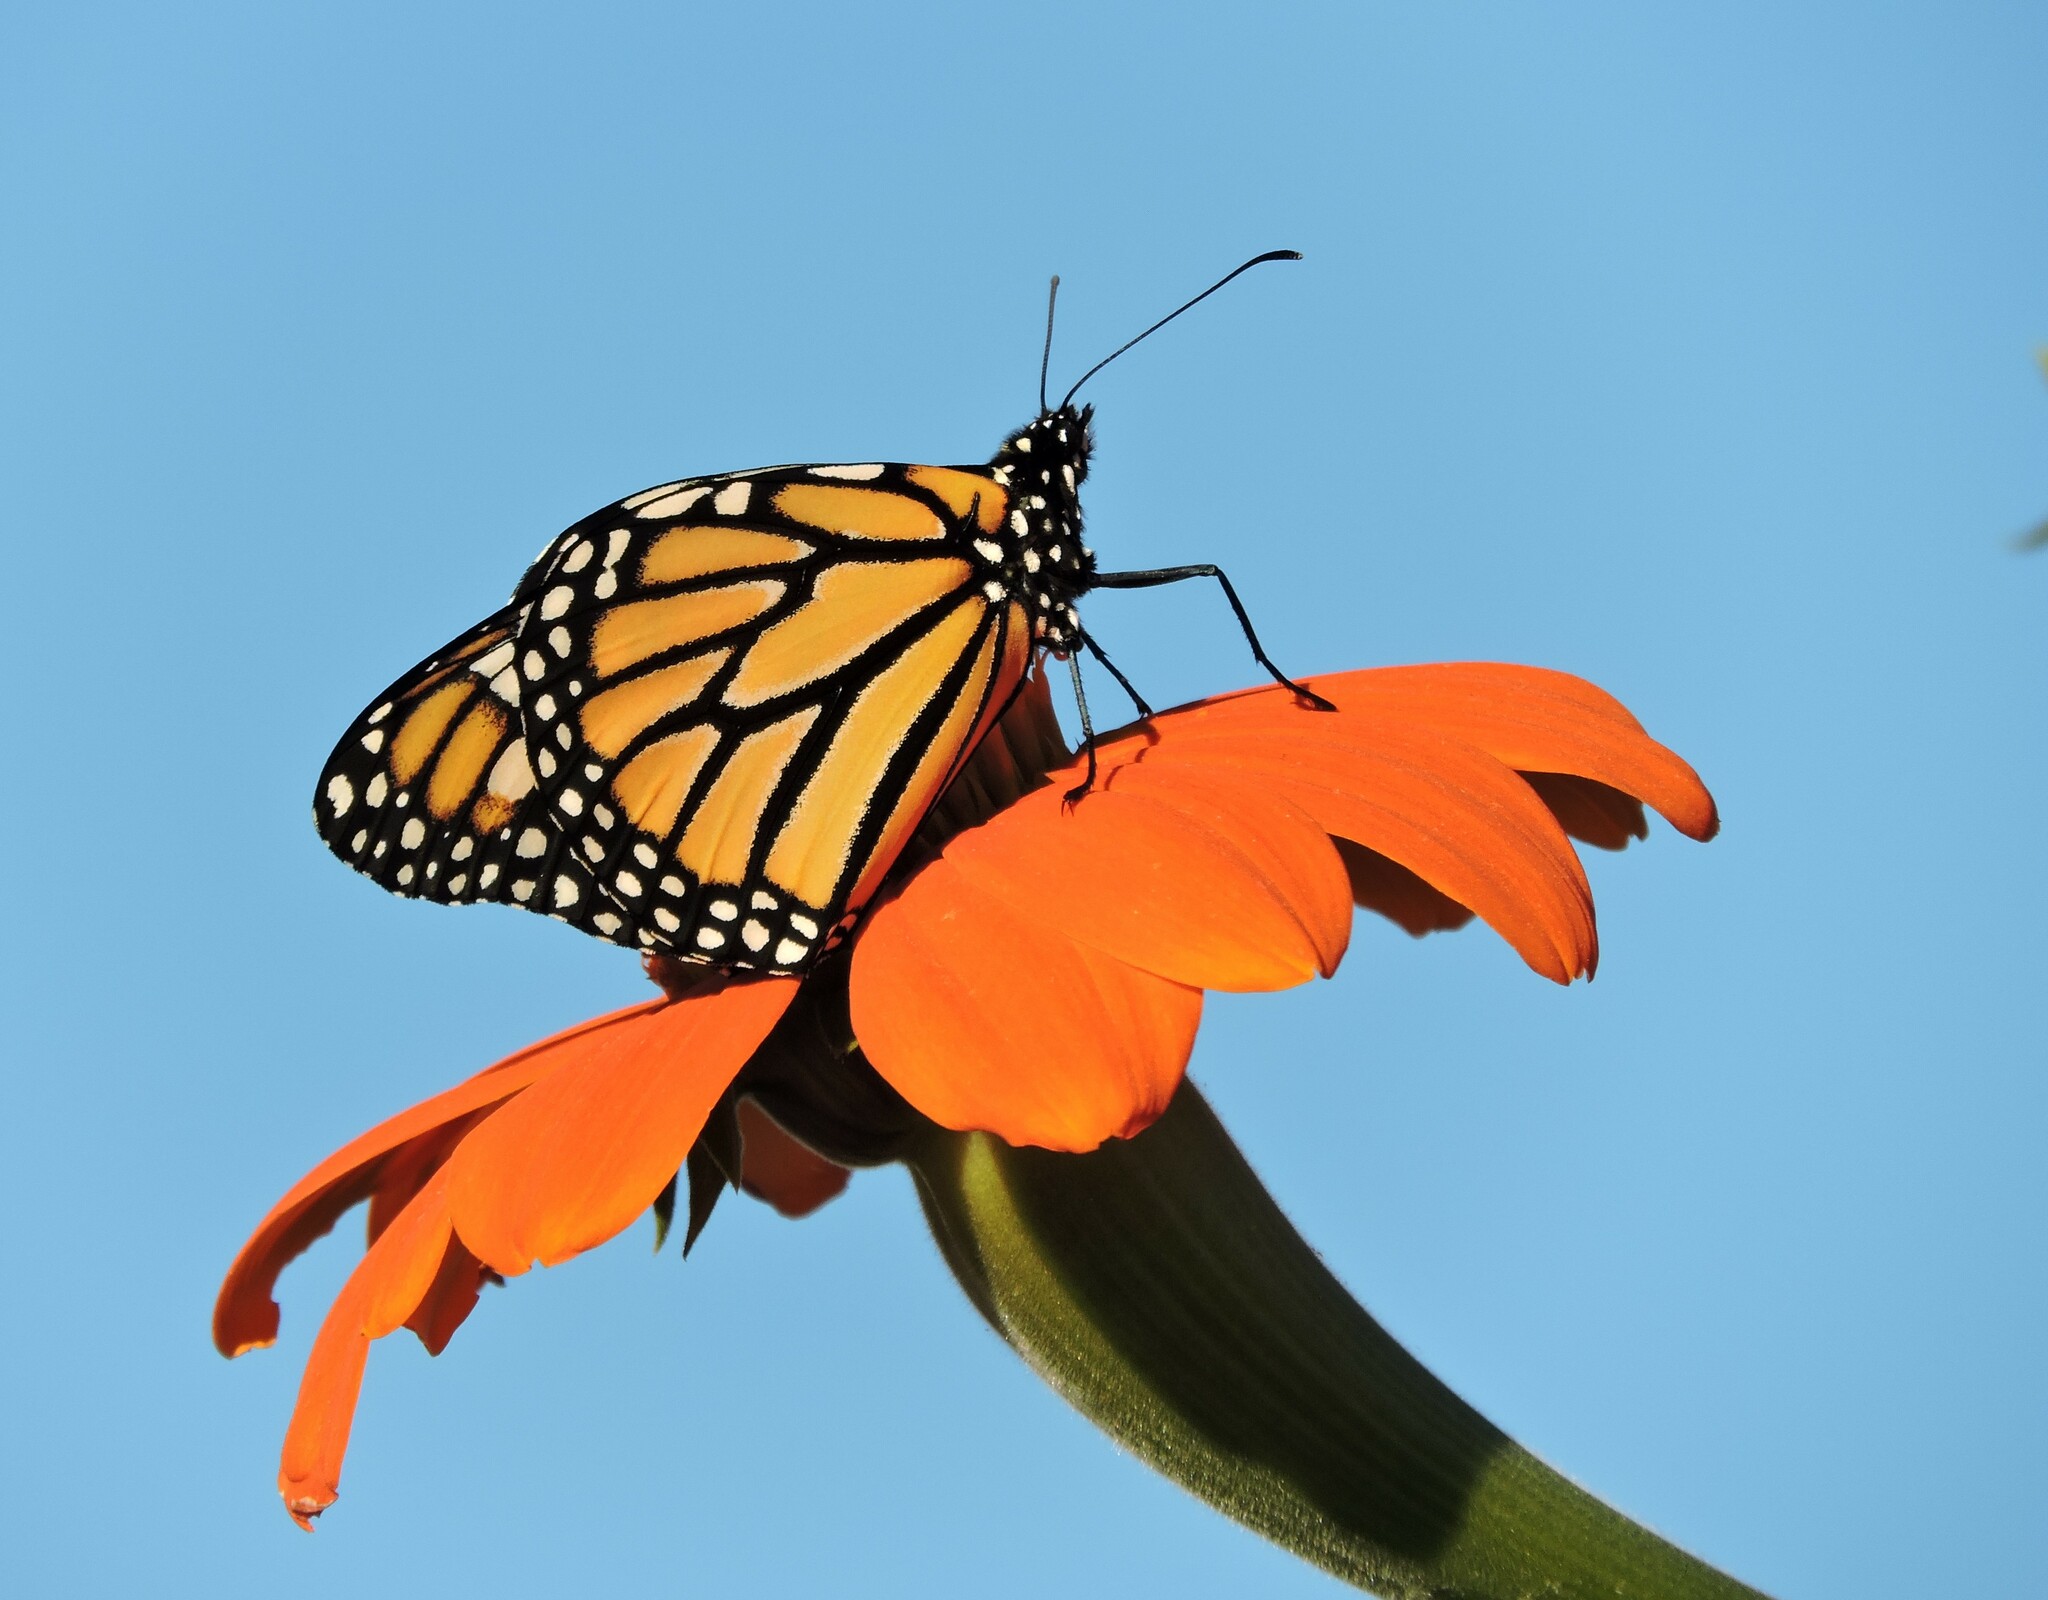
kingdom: Animalia
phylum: Arthropoda
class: Insecta
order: Lepidoptera
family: Nymphalidae
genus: Danaus
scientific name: Danaus plexippus
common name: Monarch
